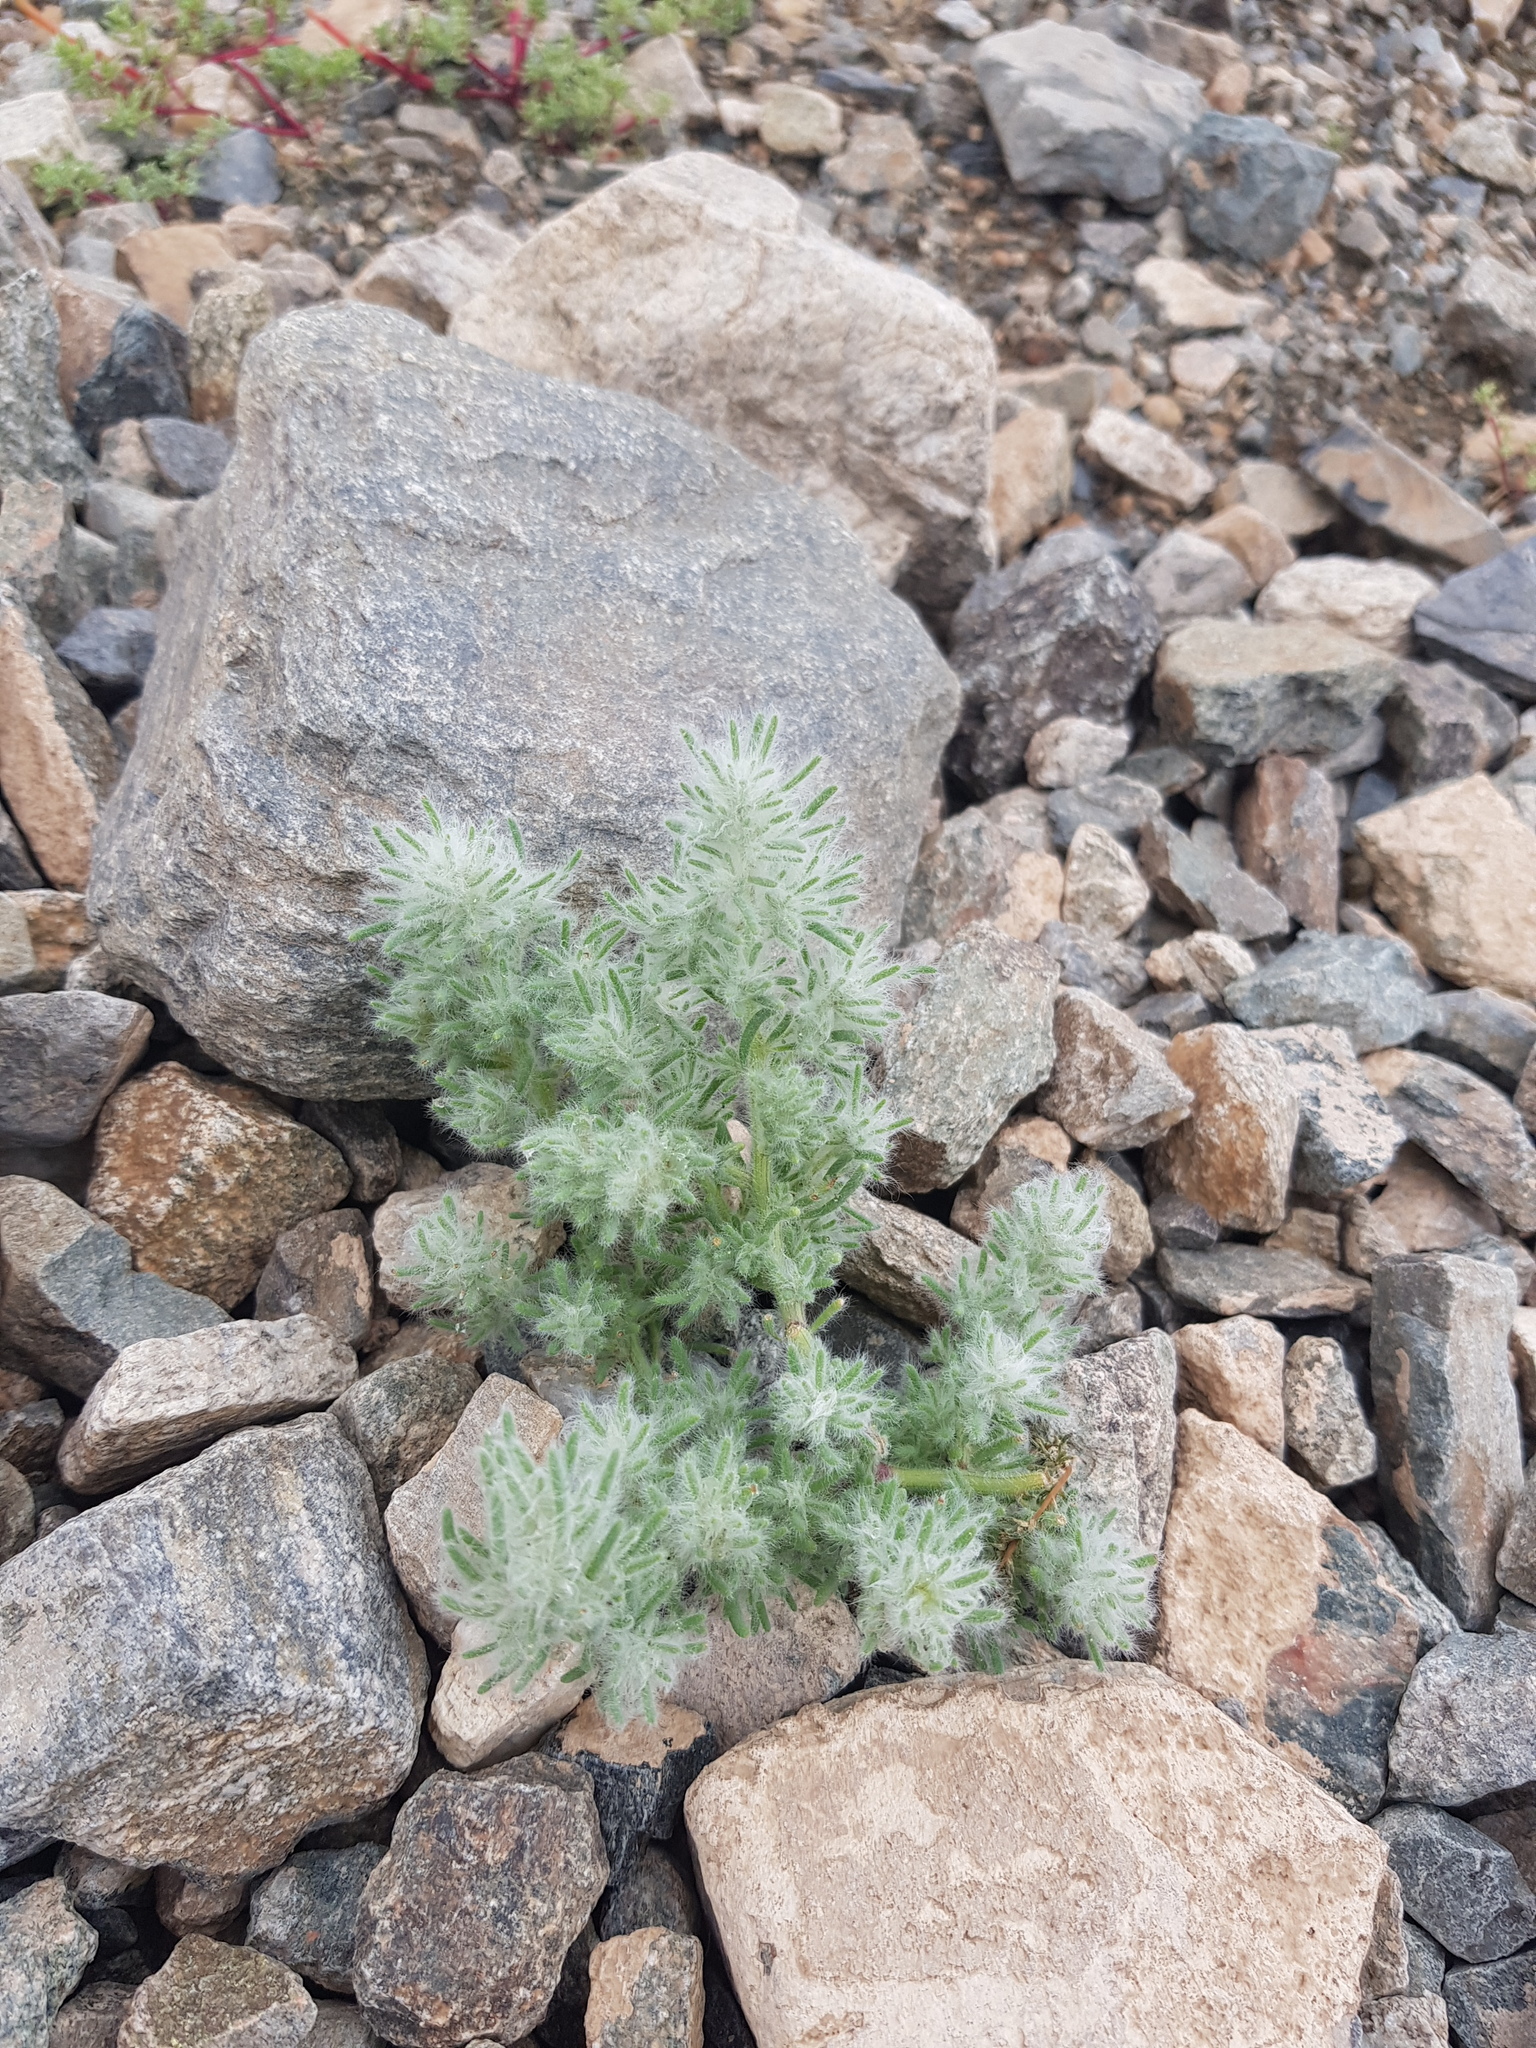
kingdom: Plantae
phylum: Tracheophyta
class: Magnoliopsida
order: Caryophyllales
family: Amaranthaceae
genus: Grubovia
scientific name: Grubovia dasyphylla
